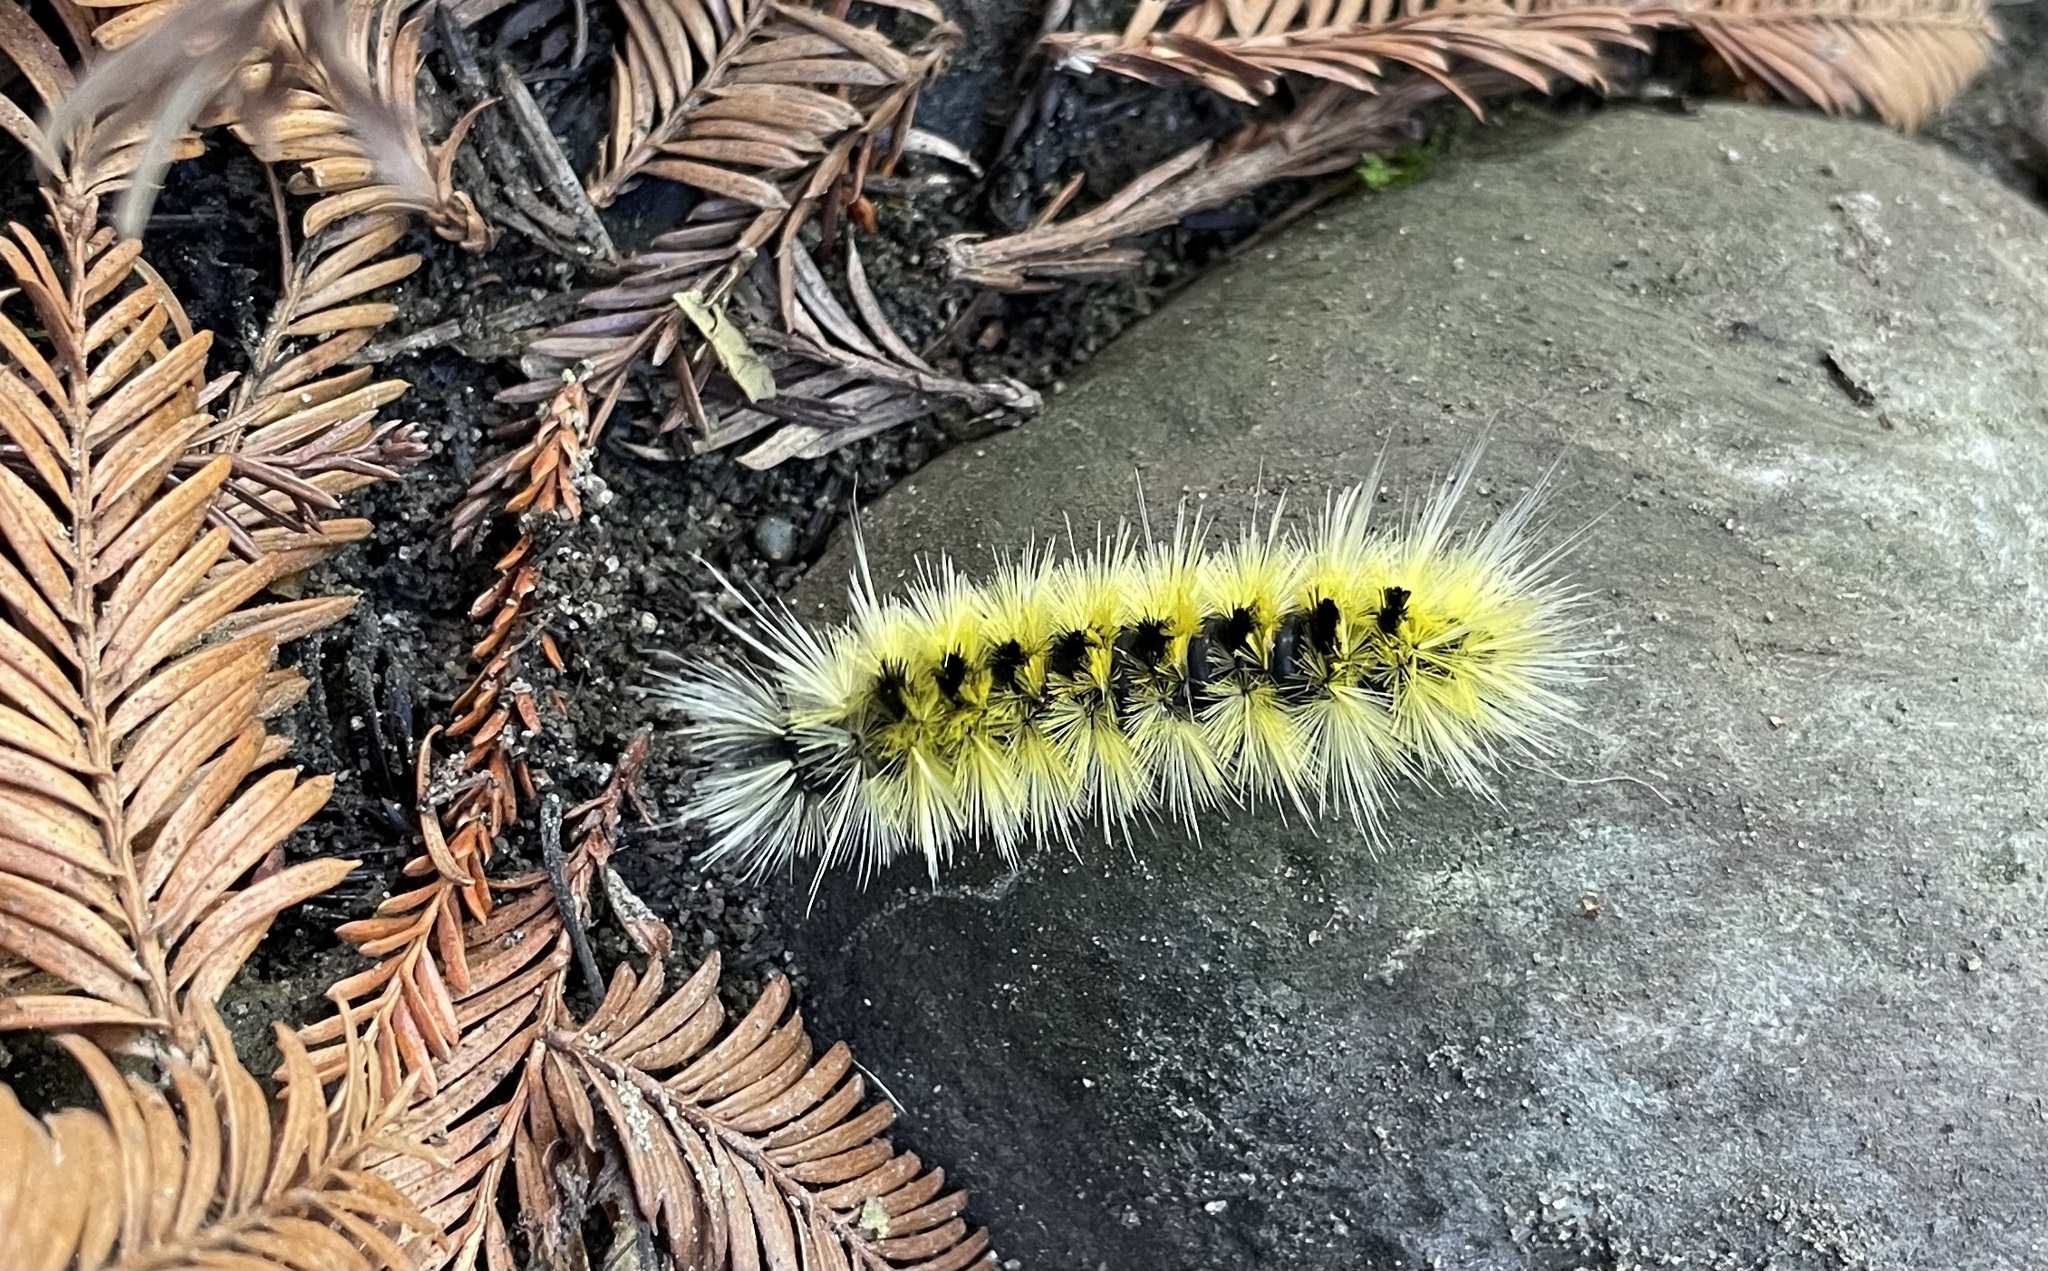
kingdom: Animalia
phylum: Arthropoda
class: Insecta
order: Lepidoptera
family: Erebidae
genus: Lophocampa
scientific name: Lophocampa maculata
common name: Spotted tussock moth
